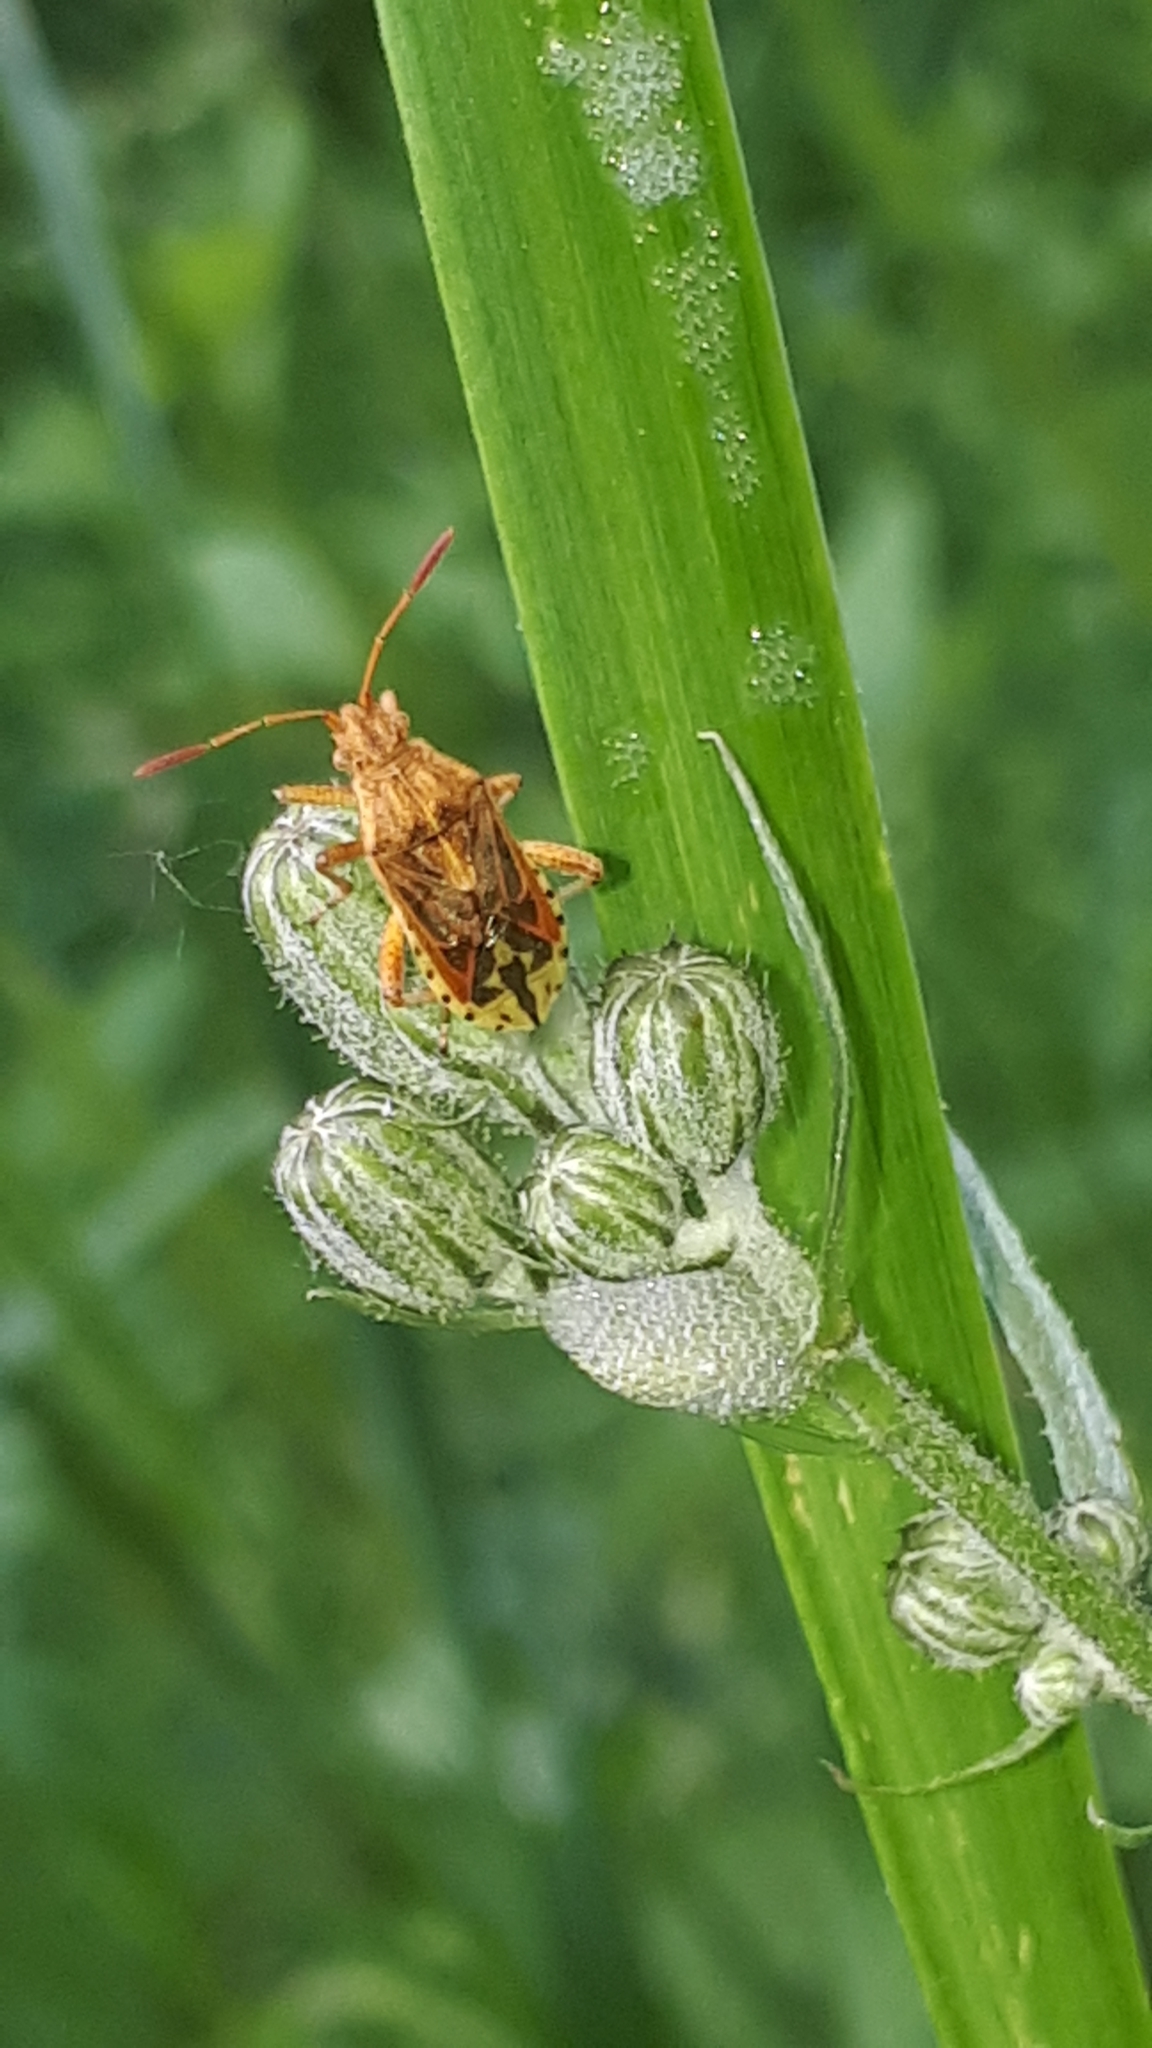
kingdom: Animalia
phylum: Arthropoda
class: Insecta
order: Hemiptera
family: Rhopalidae
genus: Stictopleurus
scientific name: Stictopleurus abutilon
